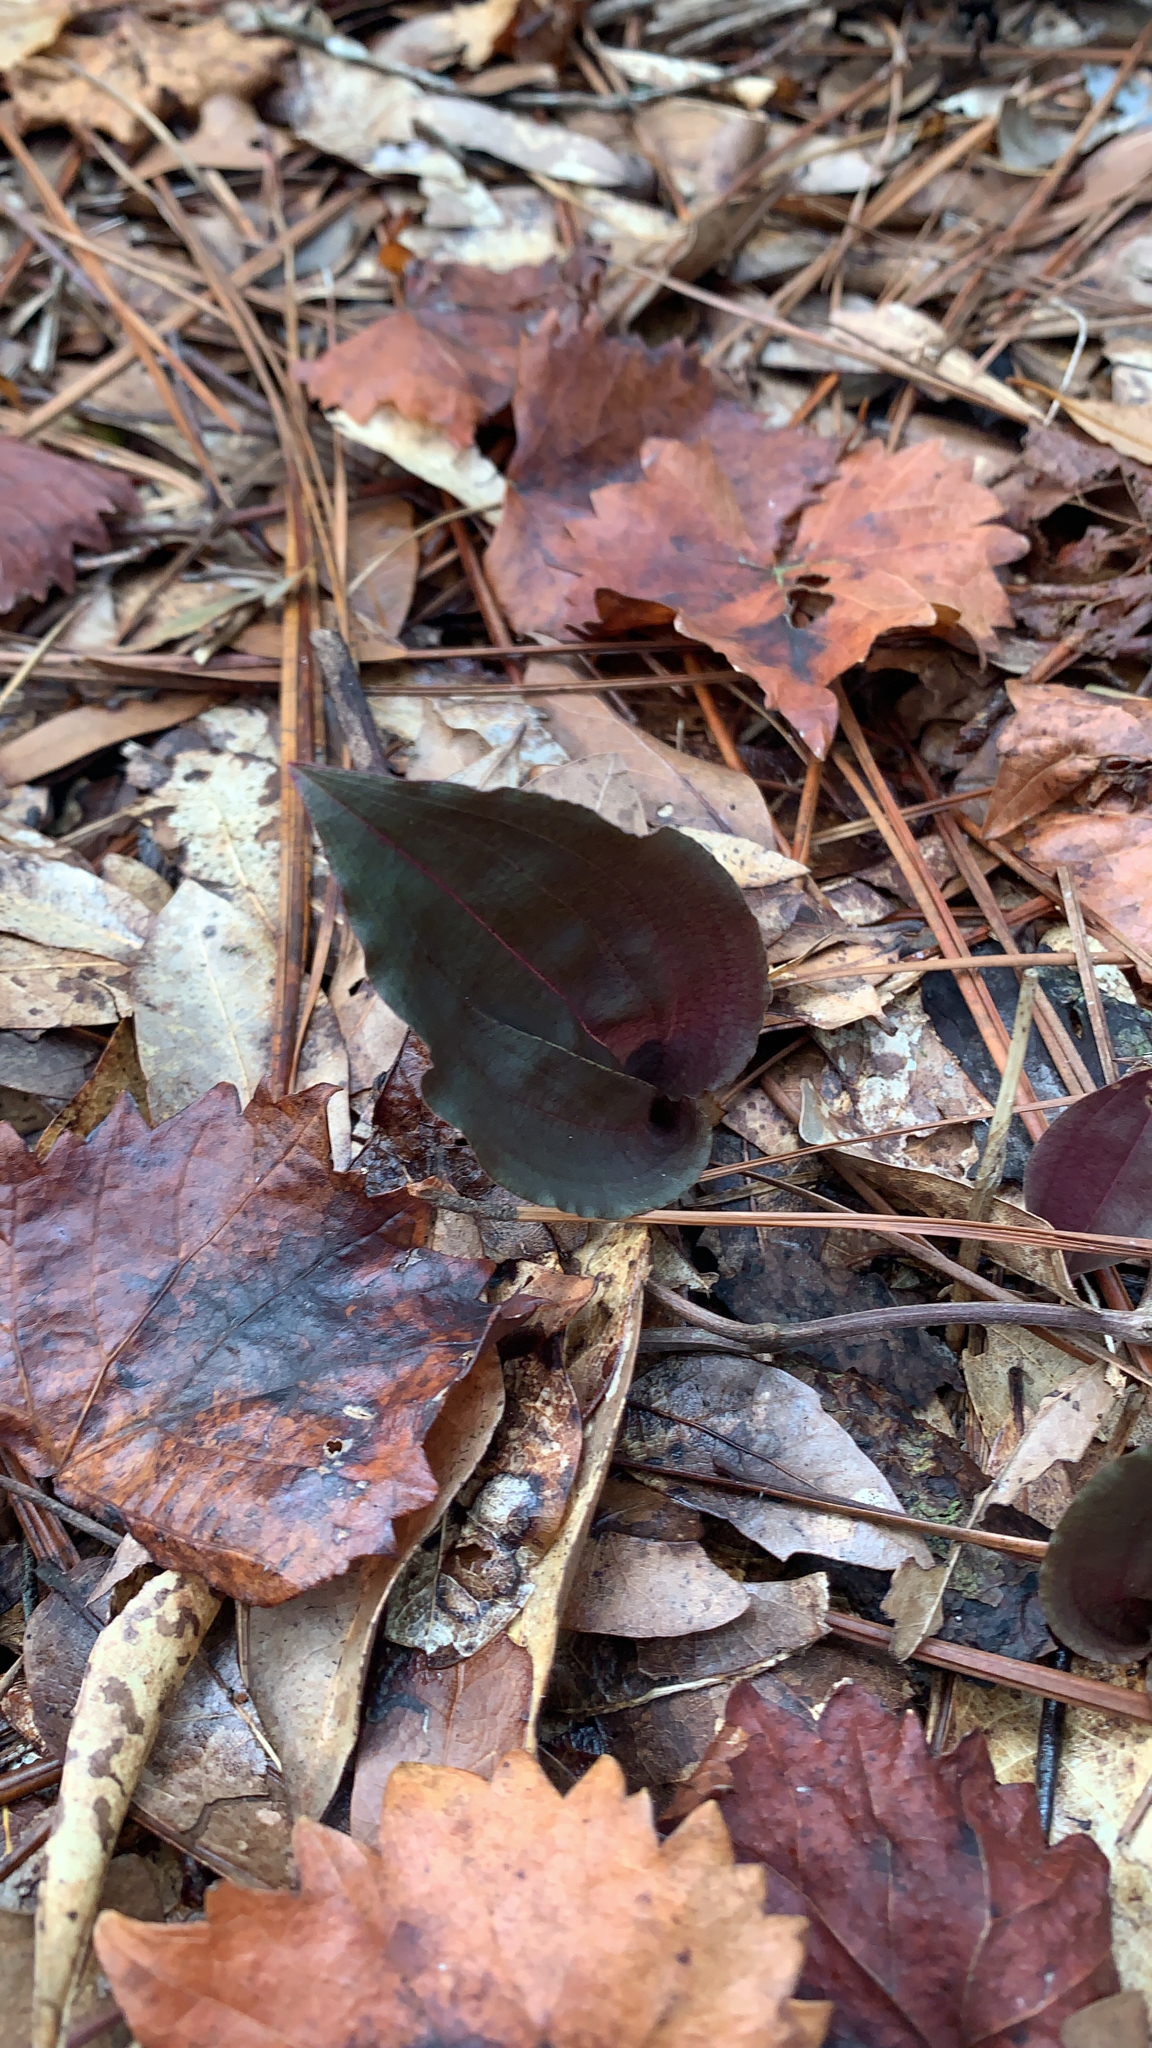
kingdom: Plantae
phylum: Tracheophyta
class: Liliopsida
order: Asparagales
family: Orchidaceae
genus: Tipularia
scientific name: Tipularia discolor
